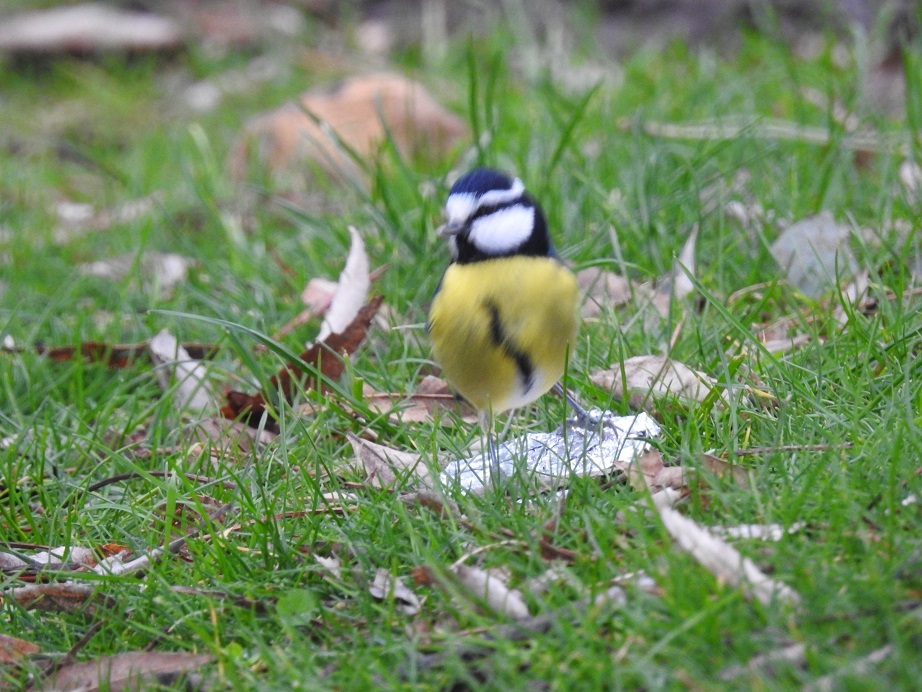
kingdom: Animalia
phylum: Chordata
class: Aves
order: Passeriformes
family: Paridae
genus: Cyanistes
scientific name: Cyanistes teneriffae
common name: African blue tit
